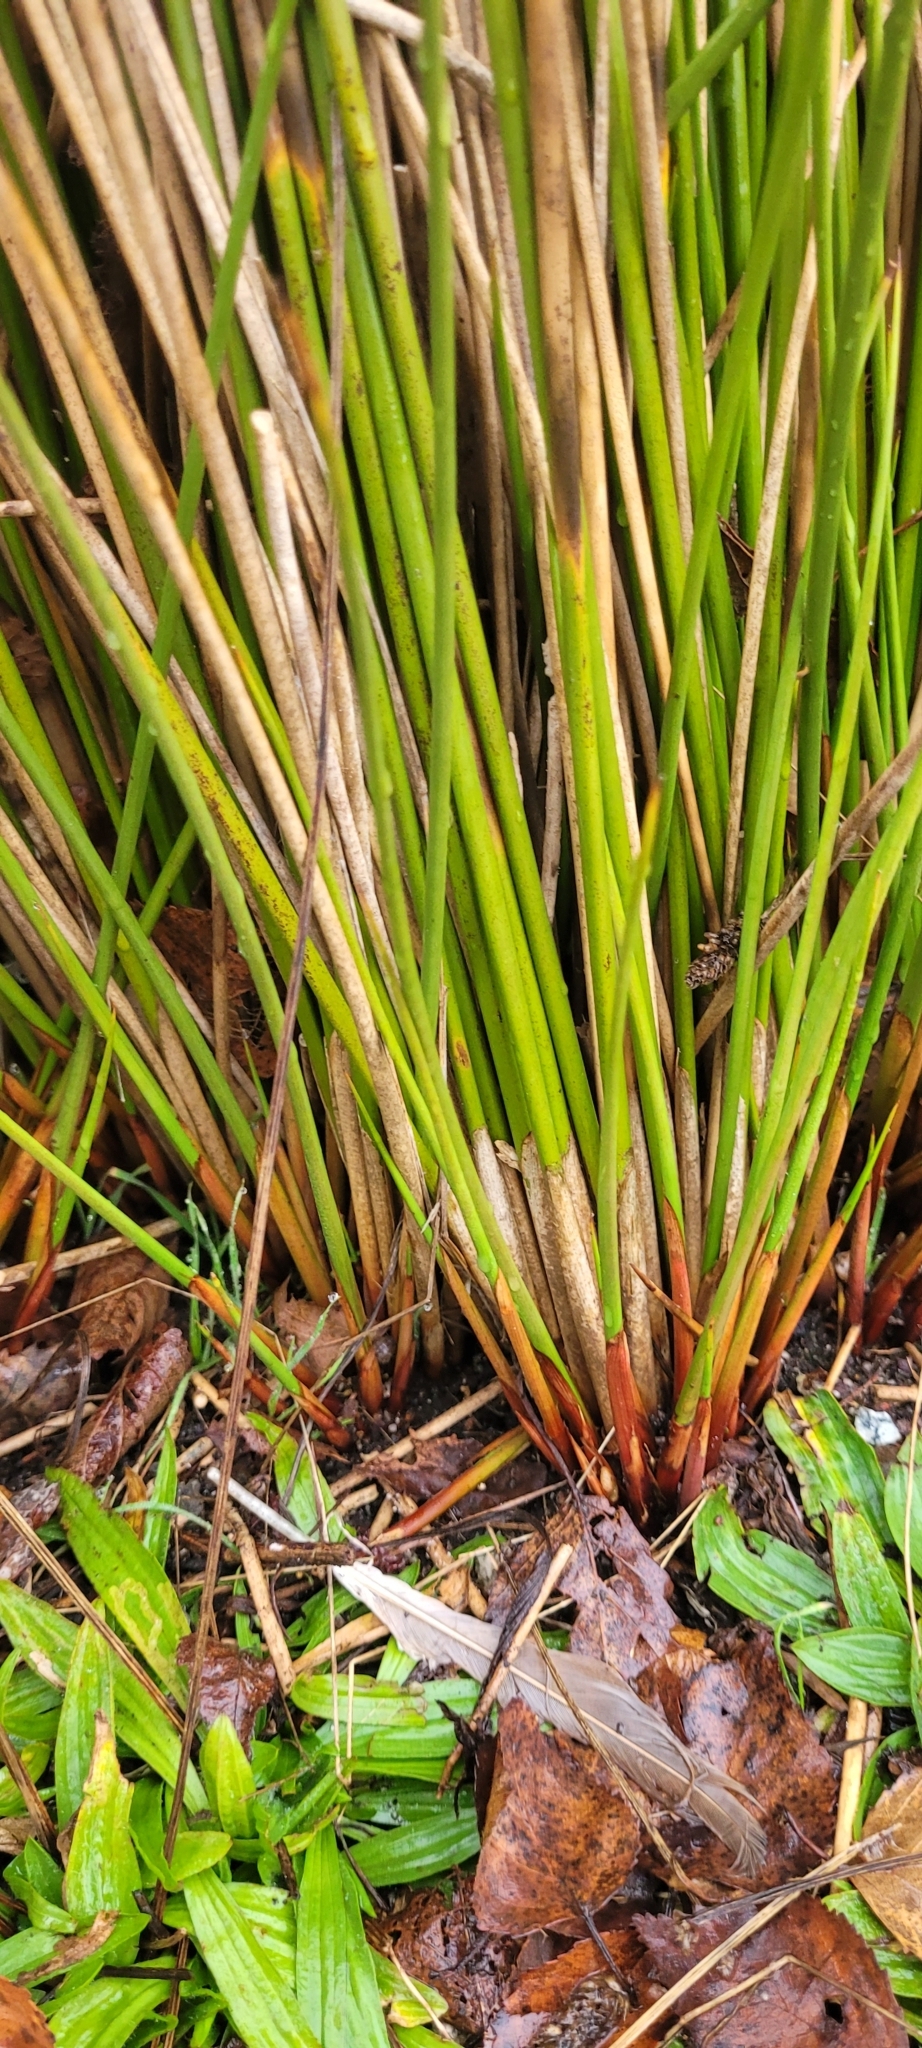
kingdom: Plantae
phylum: Tracheophyta
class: Liliopsida
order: Poales
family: Juncaceae
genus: Juncus
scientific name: Juncus effusus
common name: Soft rush
